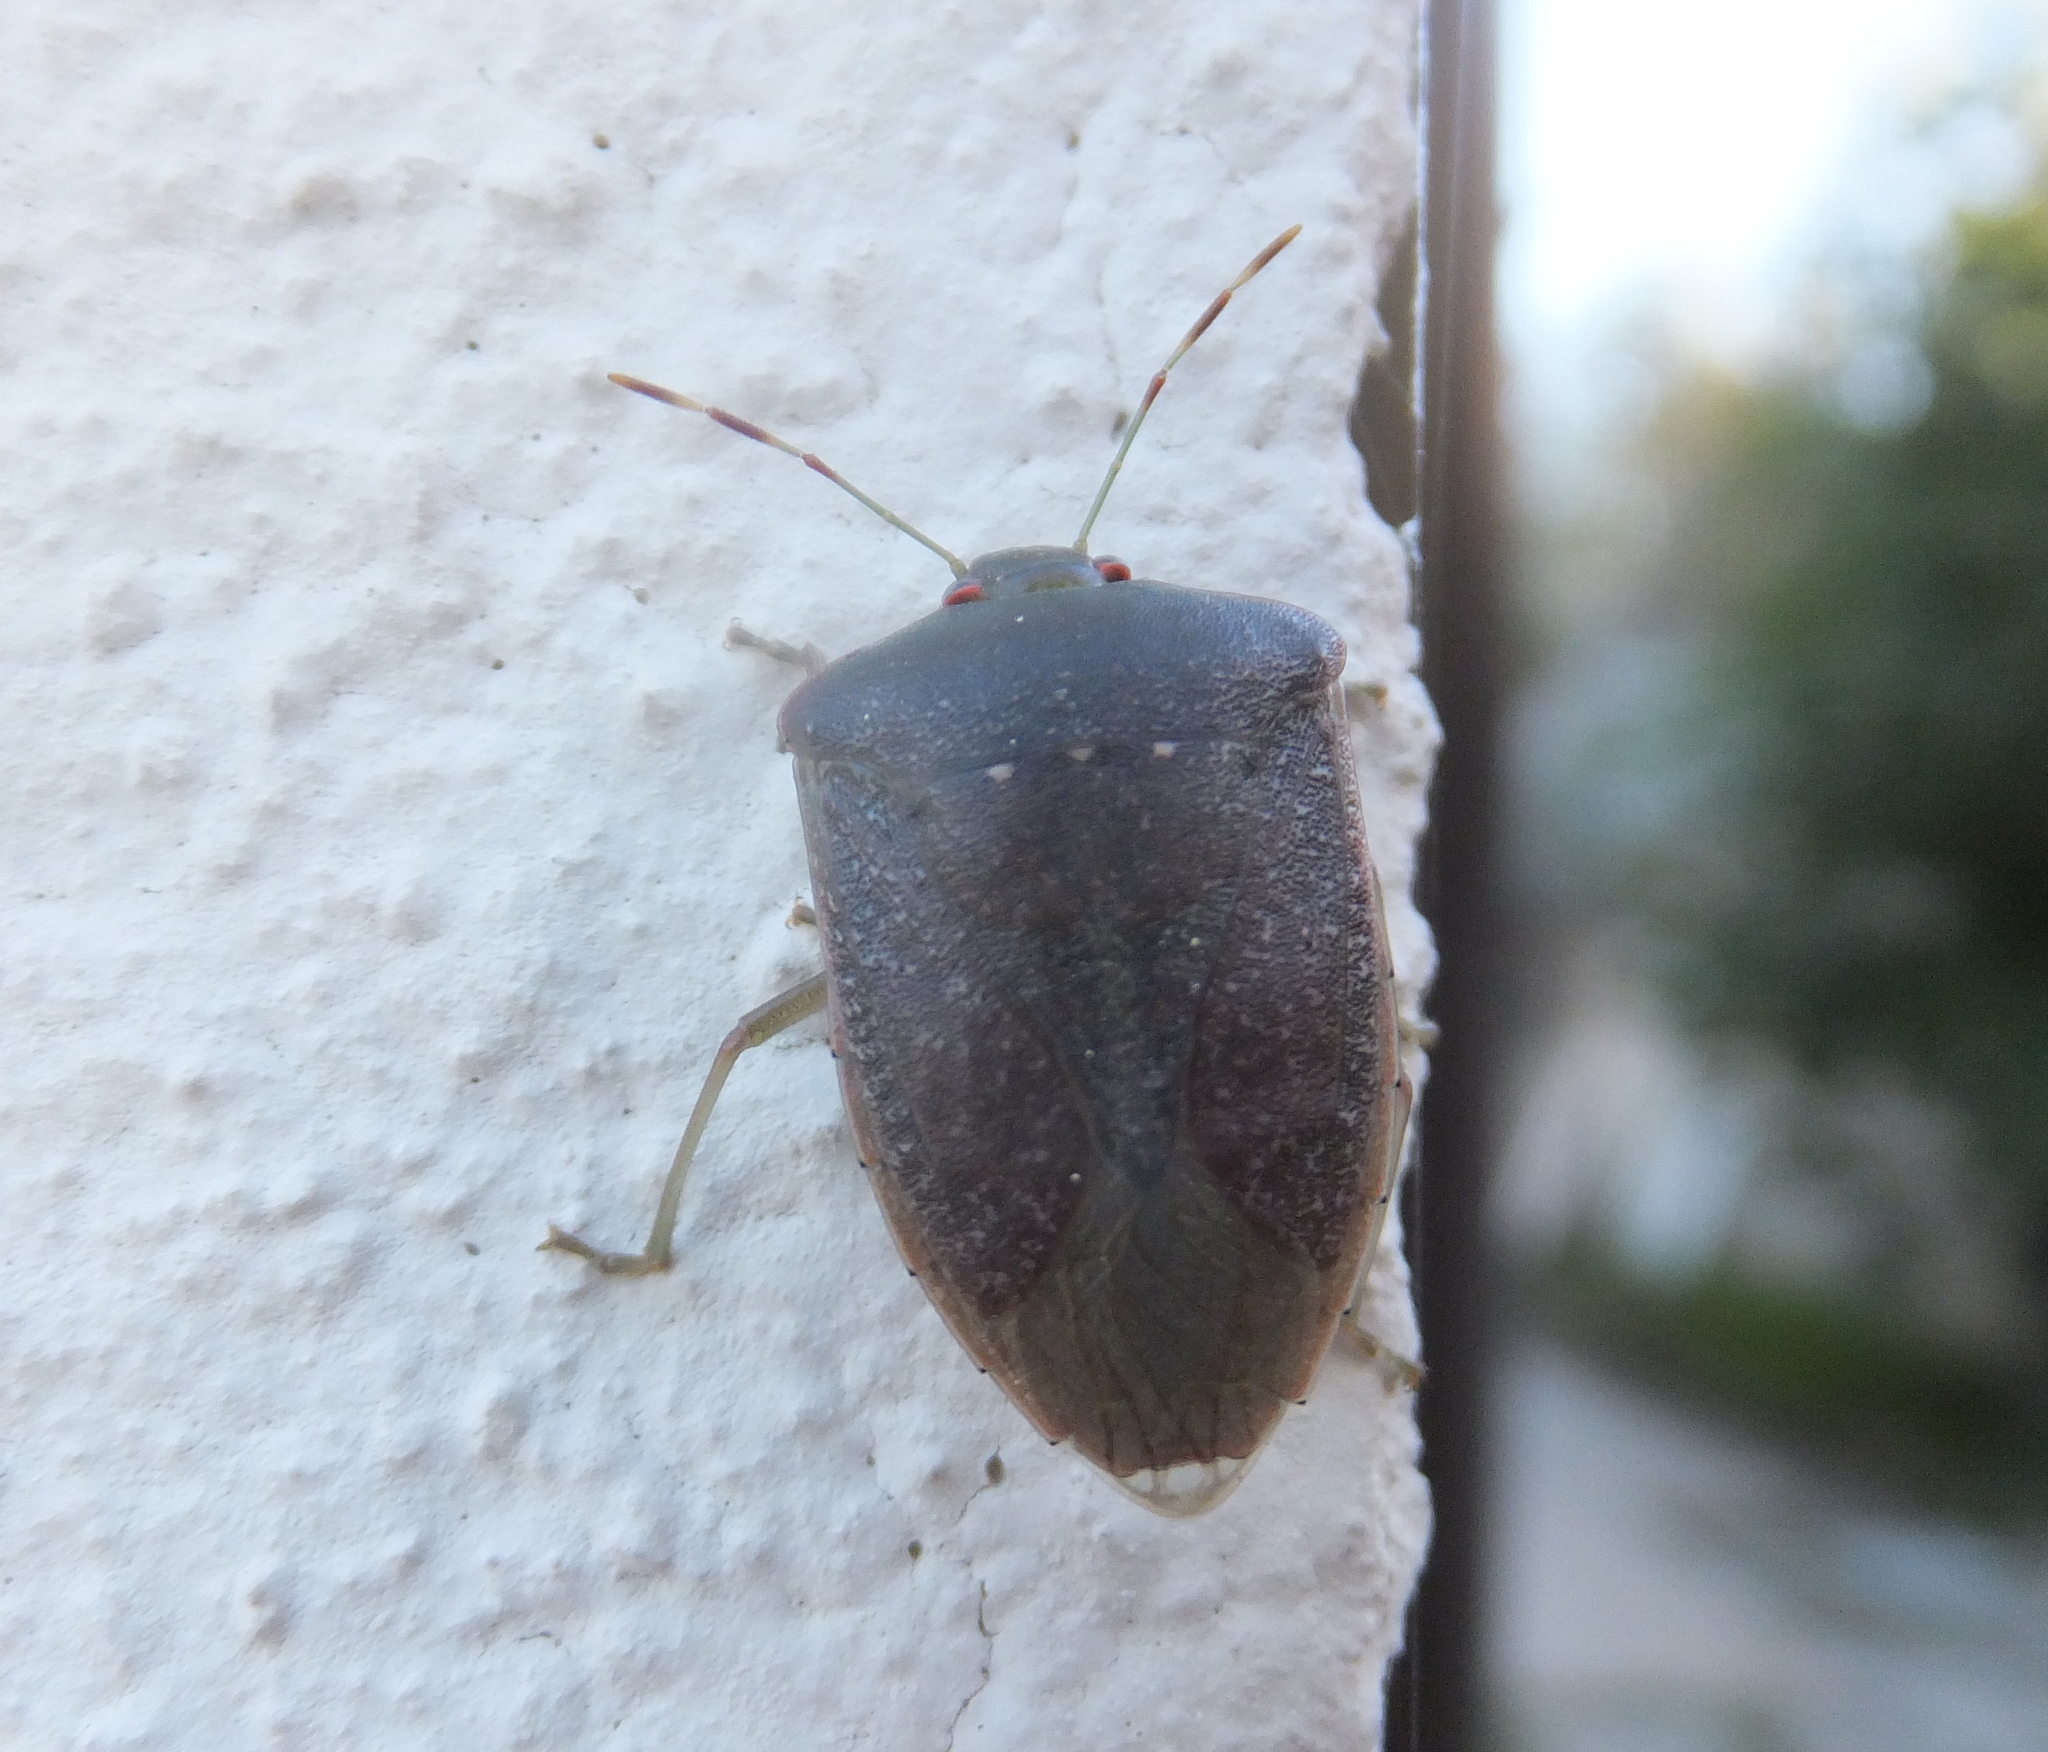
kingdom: Animalia
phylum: Arthropoda
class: Insecta
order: Hemiptera
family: Pentatomidae
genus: Nezara
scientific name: Nezara viridula
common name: Southern green stink bug
